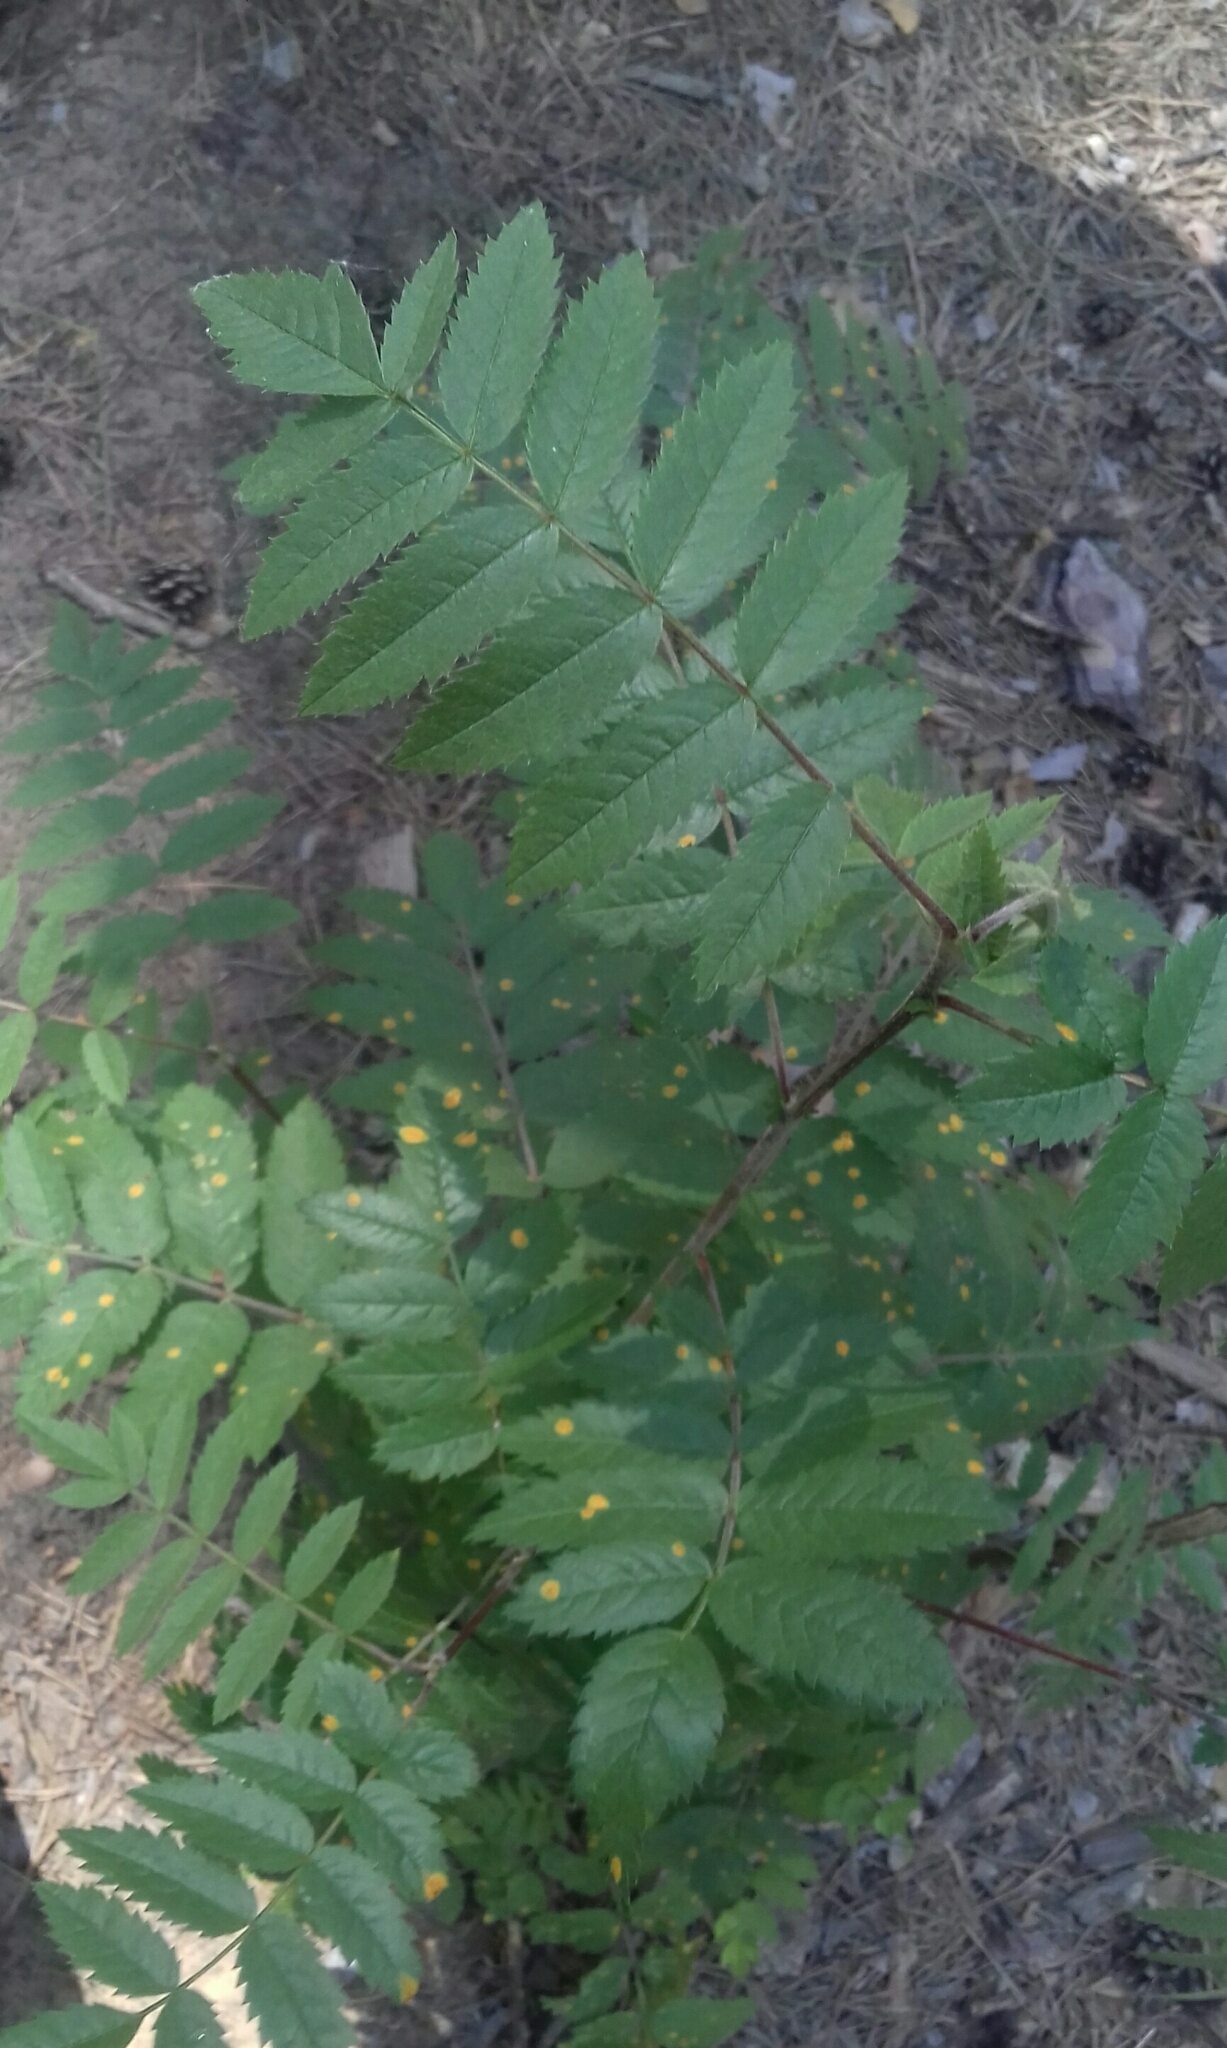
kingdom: Plantae
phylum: Tracheophyta
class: Magnoliopsida
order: Rosales
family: Rosaceae
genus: Sorbus
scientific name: Sorbus aucuparia
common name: Rowan
